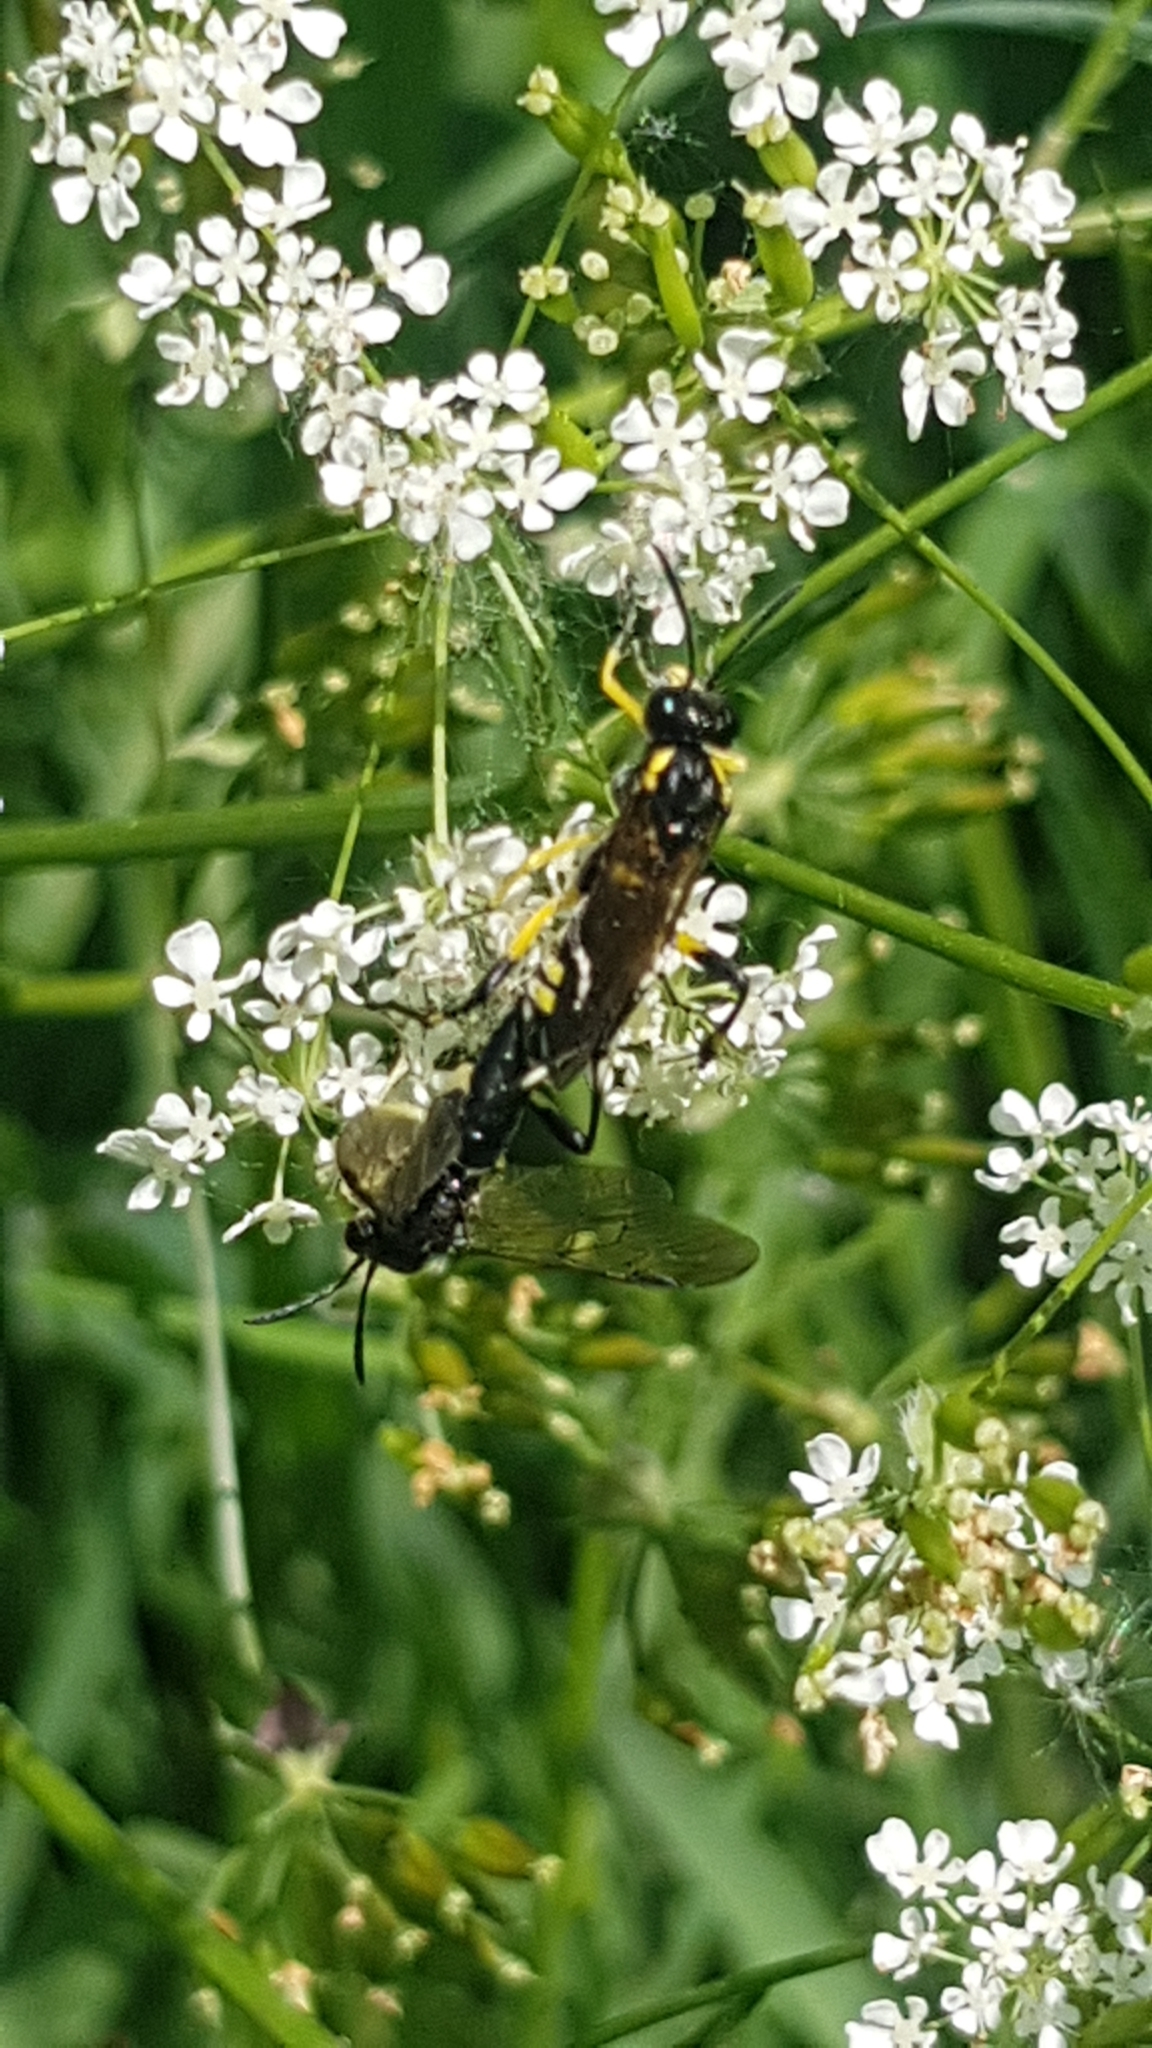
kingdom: Animalia
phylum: Arthropoda
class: Insecta
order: Hymenoptera
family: Tenthredinidae
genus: Macrophya
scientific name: Macrophya montana
